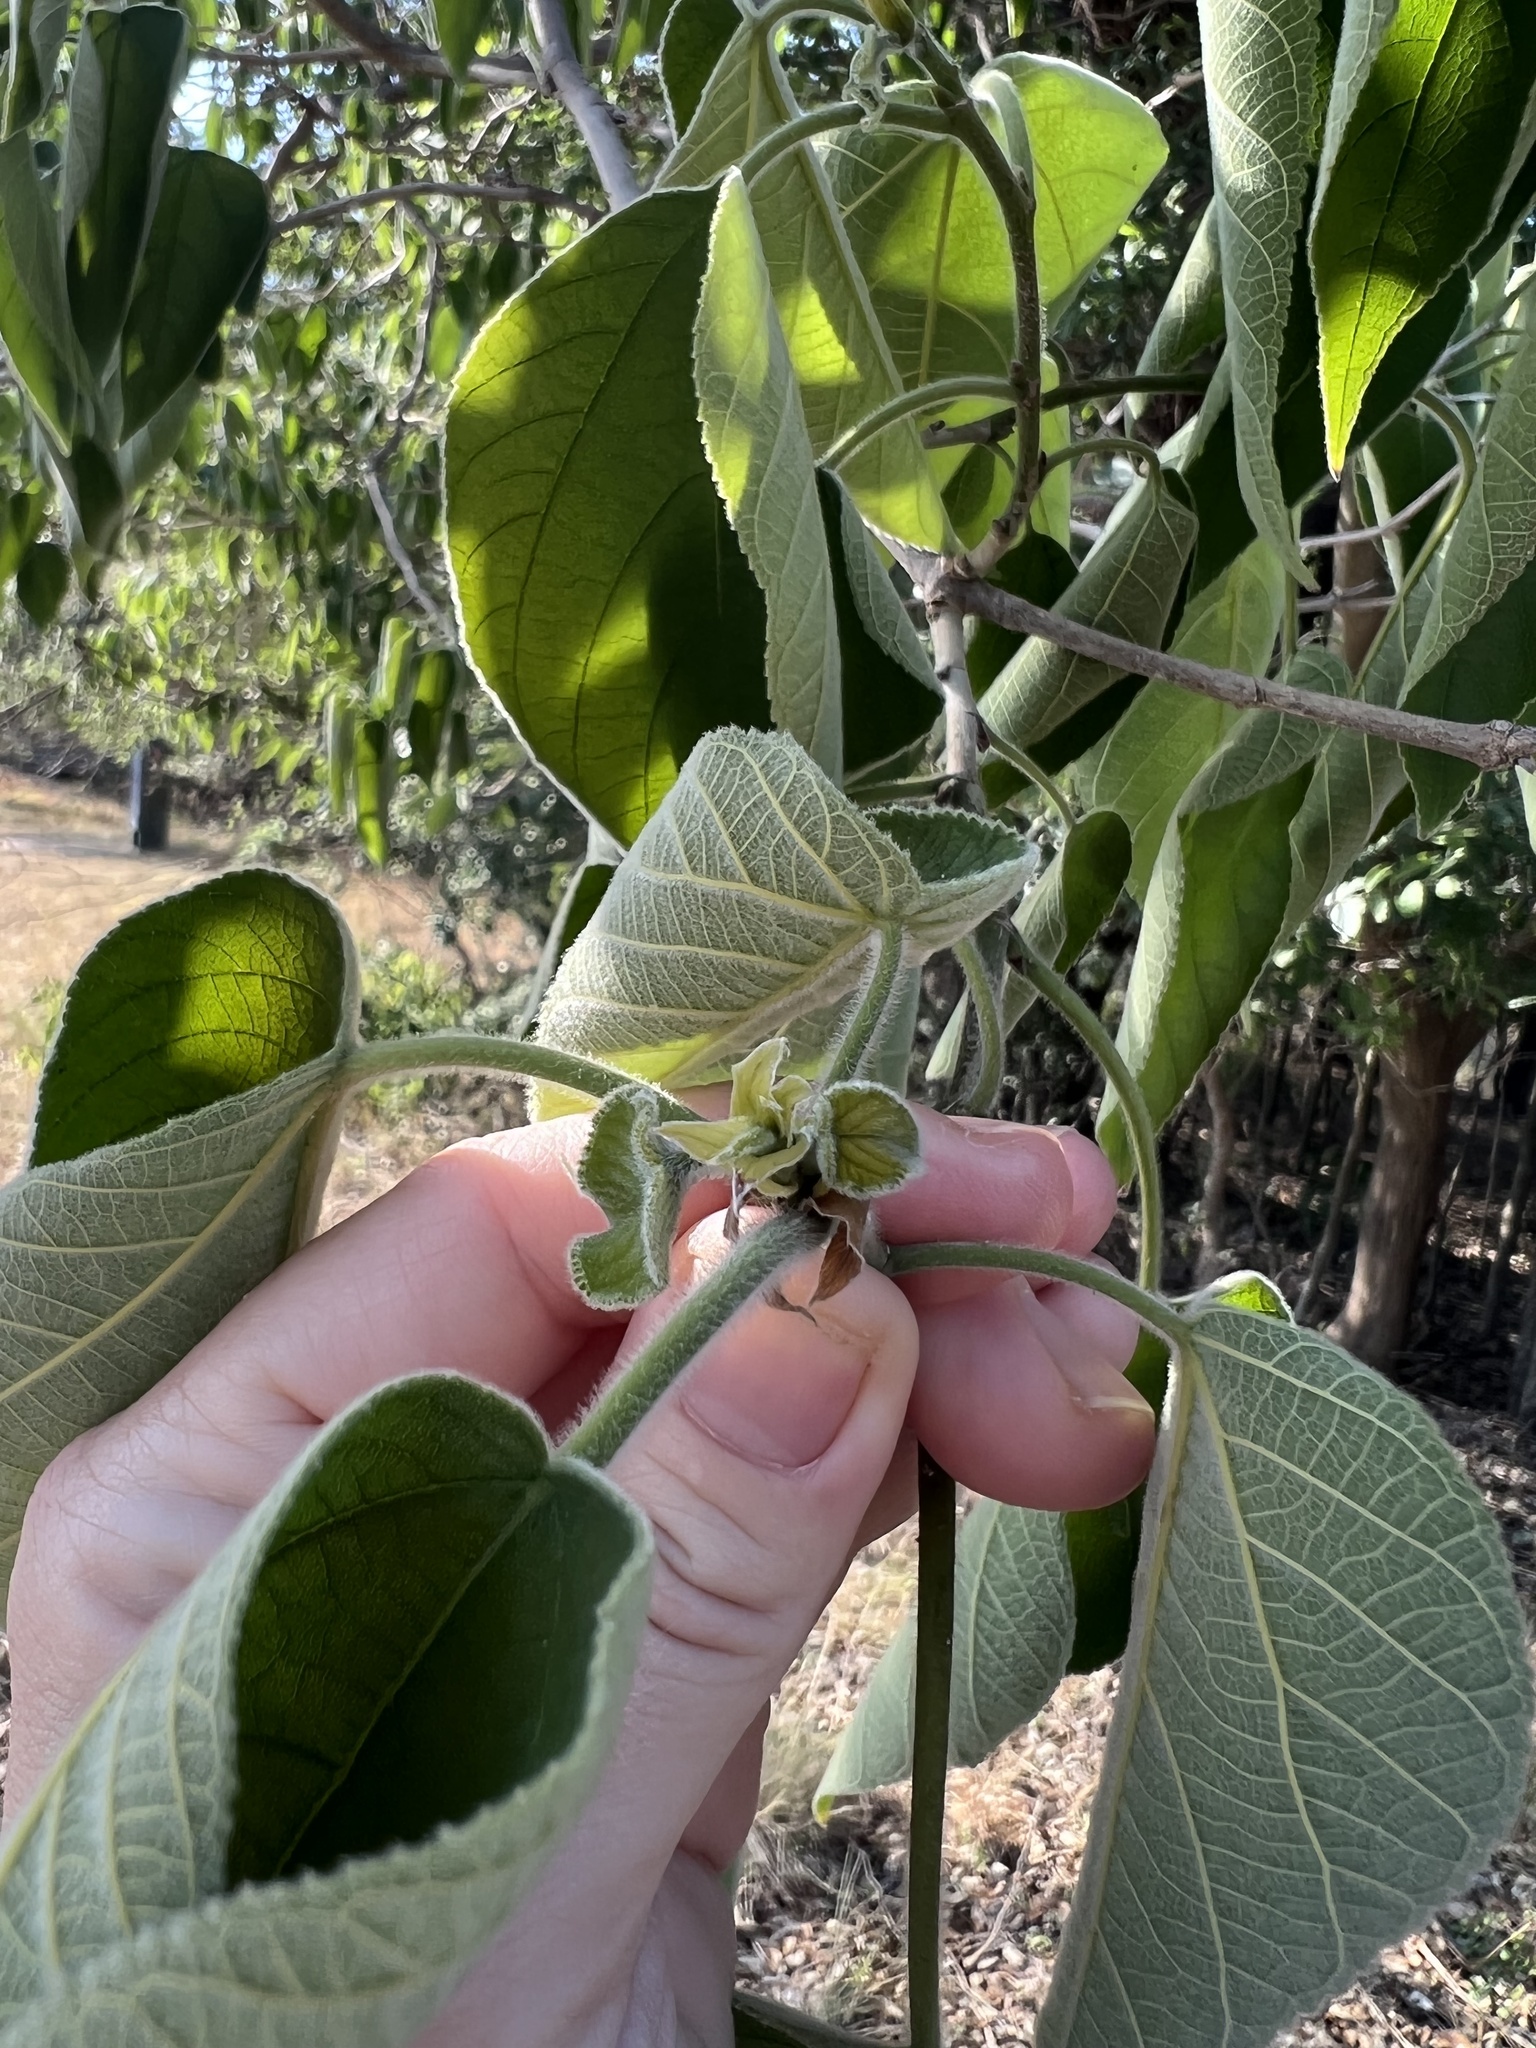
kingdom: Plantae
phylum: Tracheophyta
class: Magnoliopsida
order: Rosales
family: Moraceae
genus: Broussonetia
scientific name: Broussonetia papyrifera
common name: Paper mulberry
